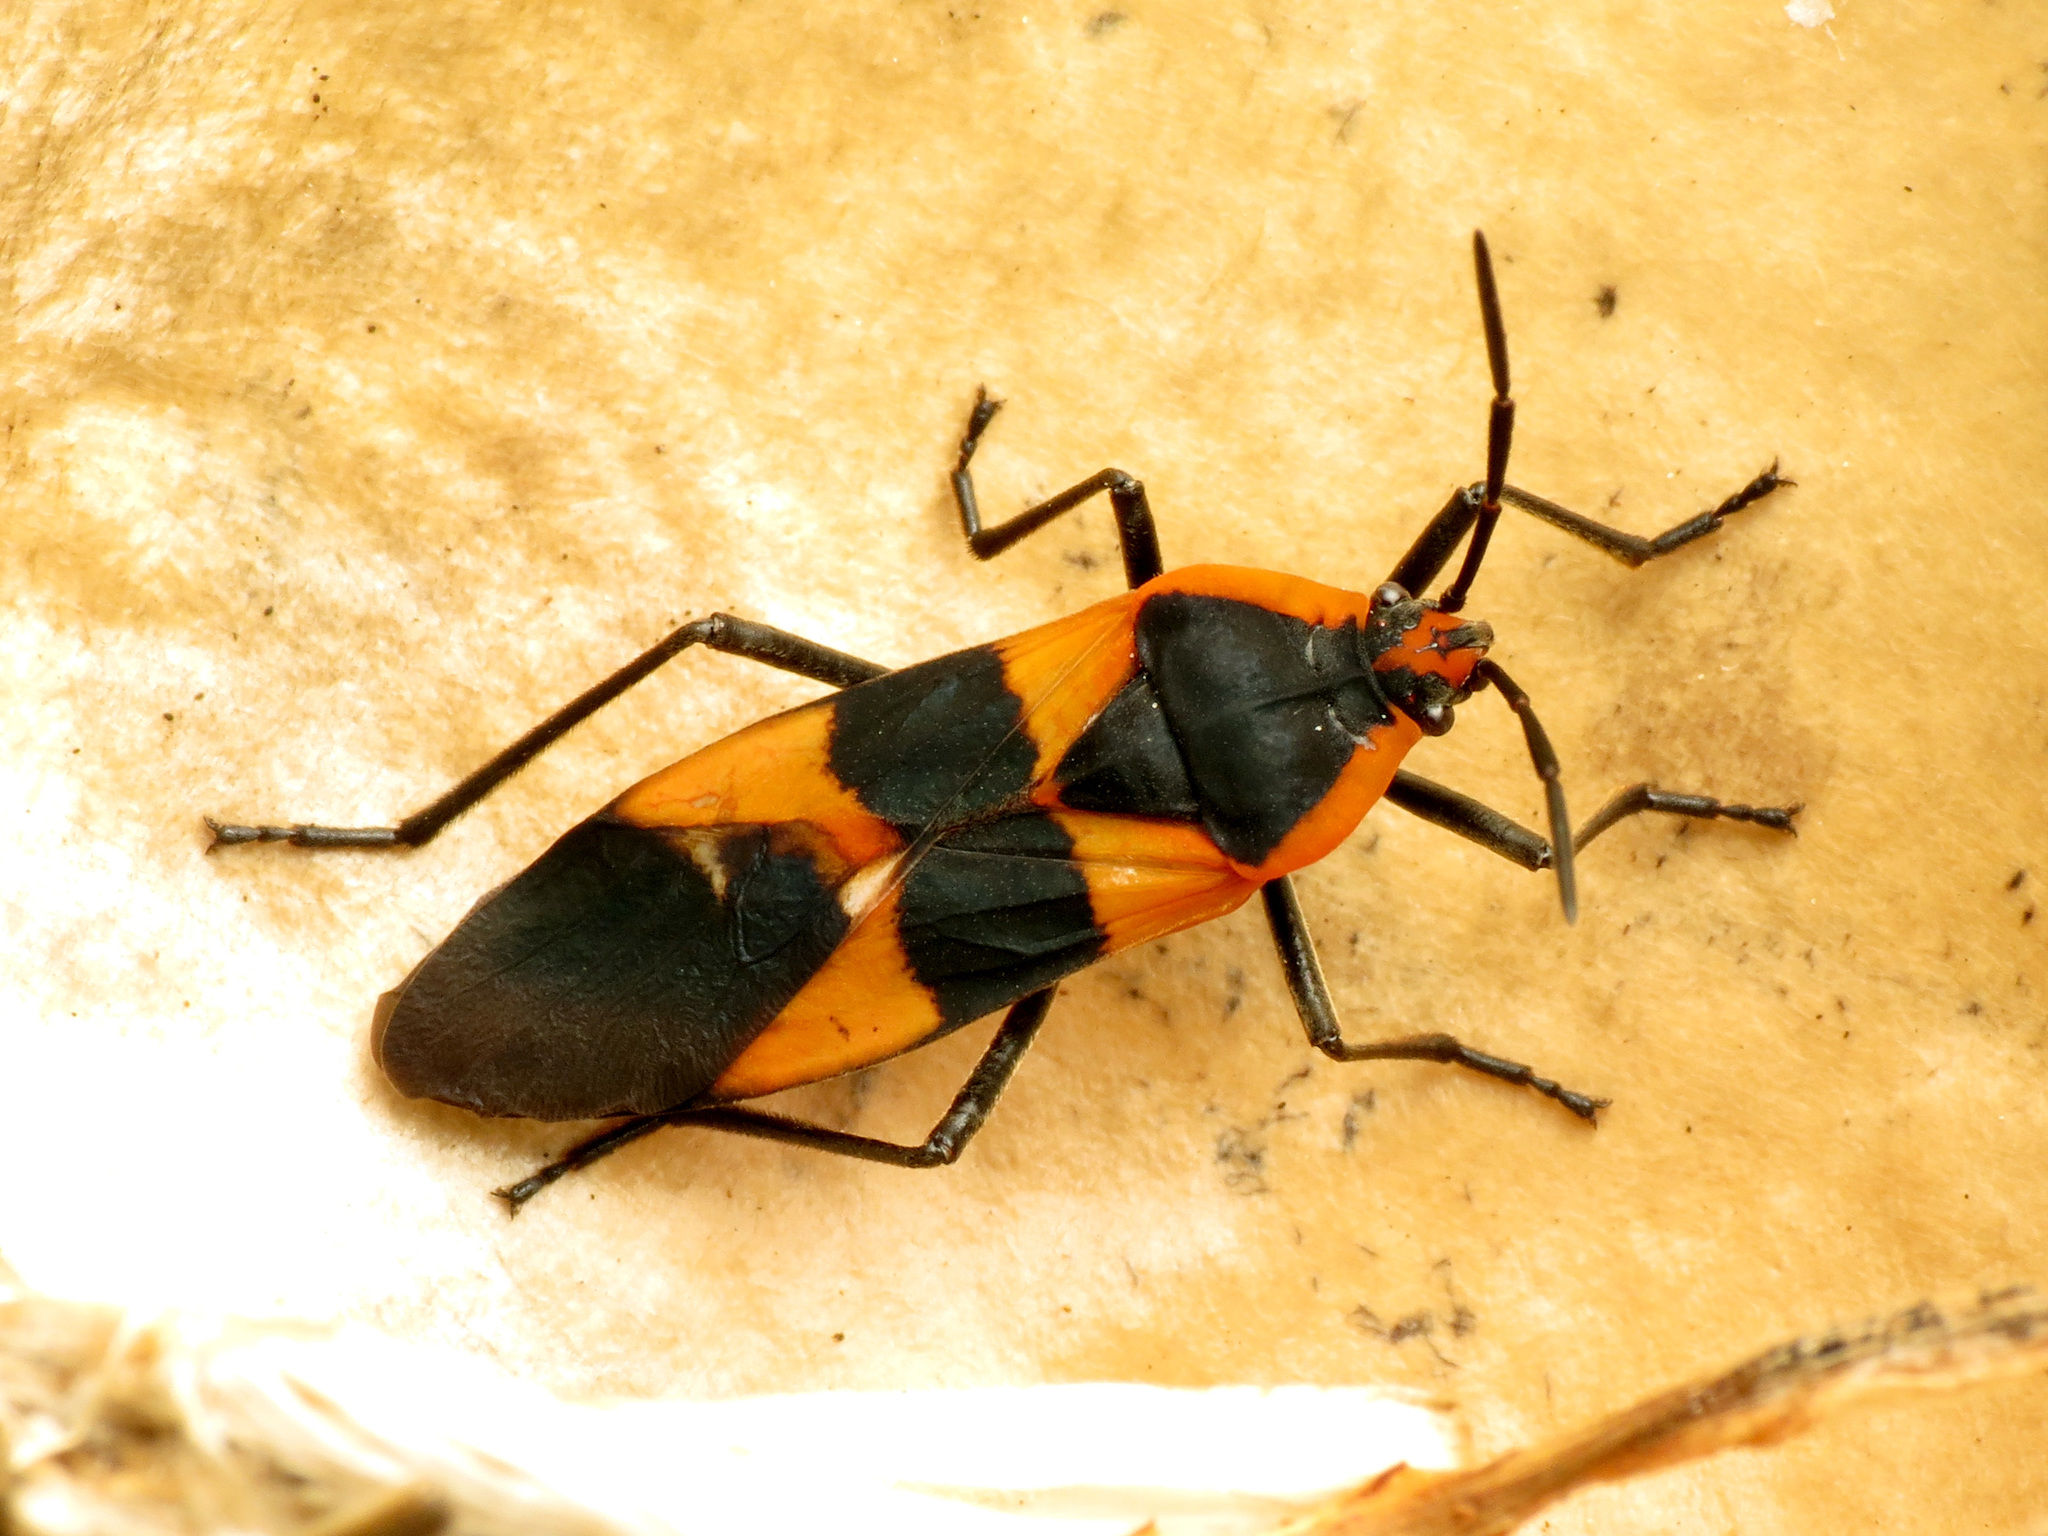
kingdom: Animalia
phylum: Arthropoda
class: Insecta
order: Hemiptera
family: Lygaeidae
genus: Oncopeltus
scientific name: Oncopeltus fasciatus
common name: Large milkweed bug
